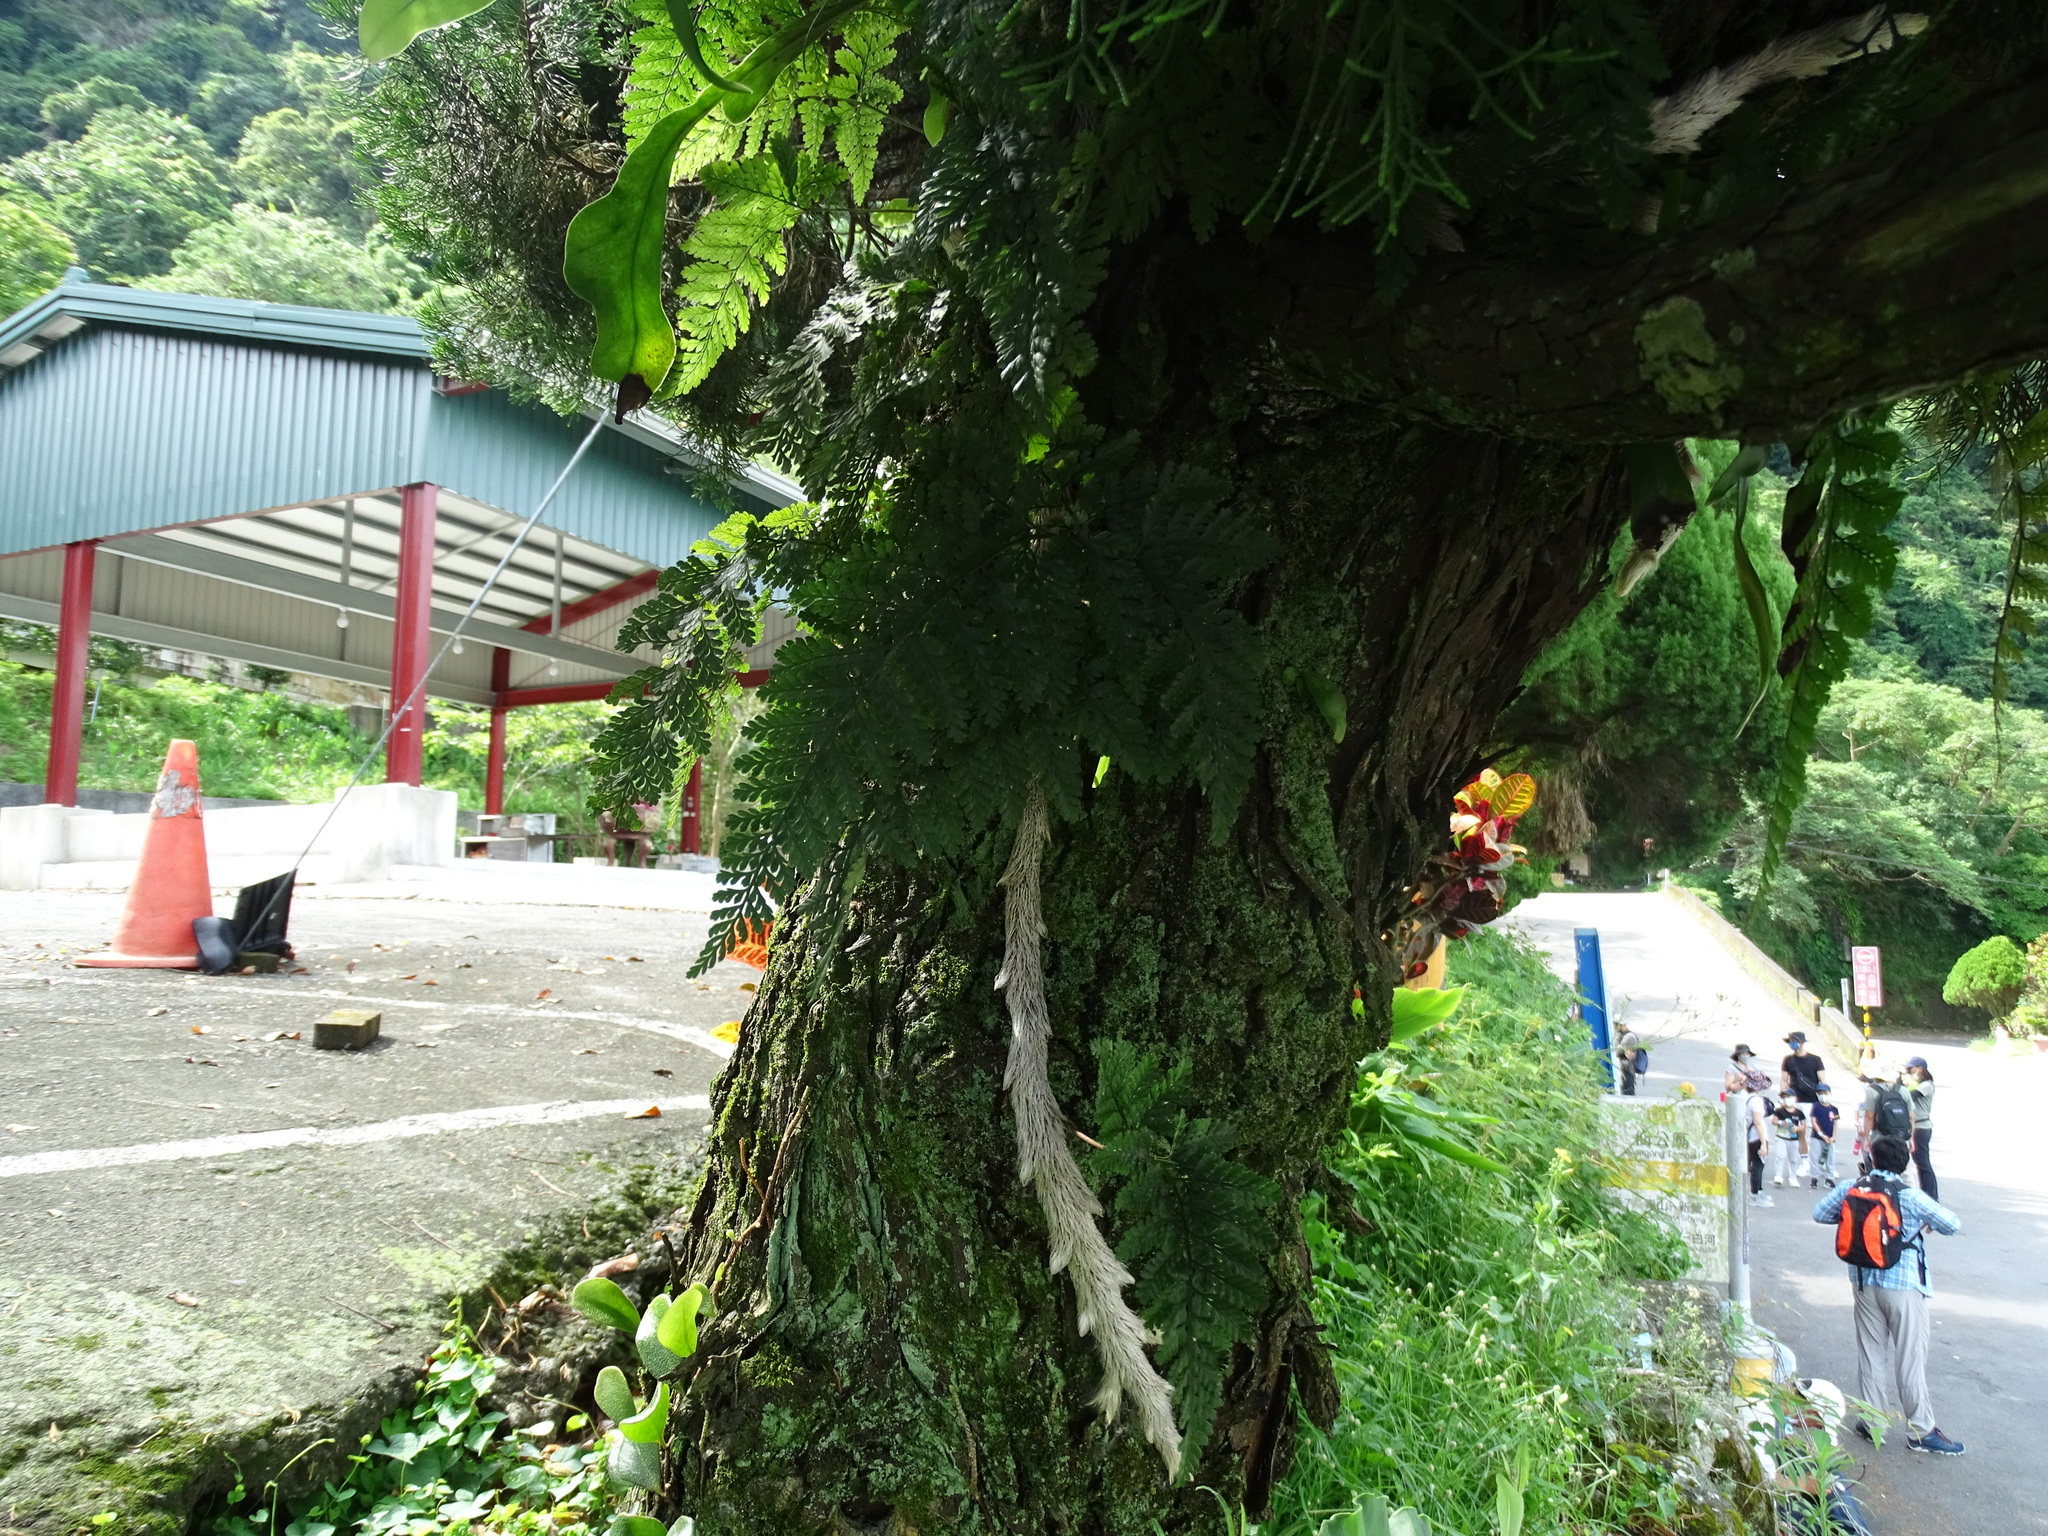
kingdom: Plantae
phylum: Tracheophyta
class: Polypodiopsida
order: Polypodiales
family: Davalliaceae
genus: Davallia
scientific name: Davallia griffithiana
